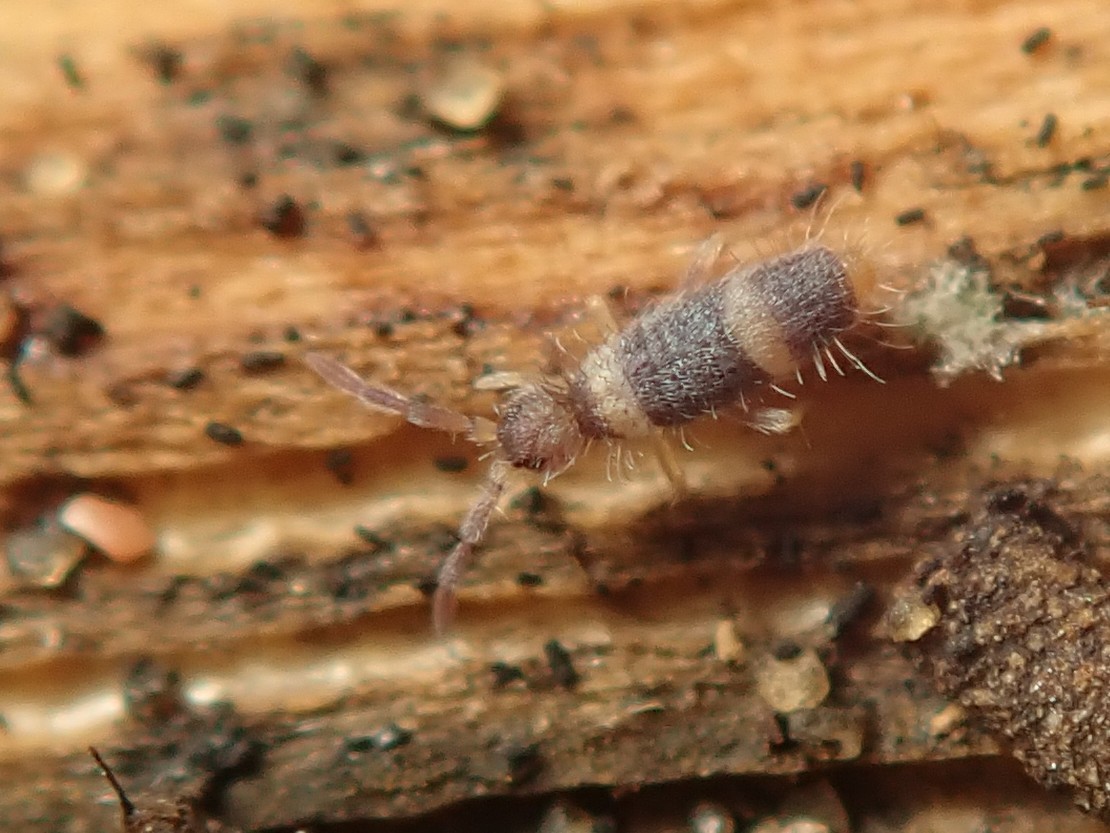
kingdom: Animalia
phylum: Arthropoda
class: Collembola
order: Entomobryomorpha
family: Entomobryidae
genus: Entomobrya
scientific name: Entomobrya albocincta
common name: Springtail
